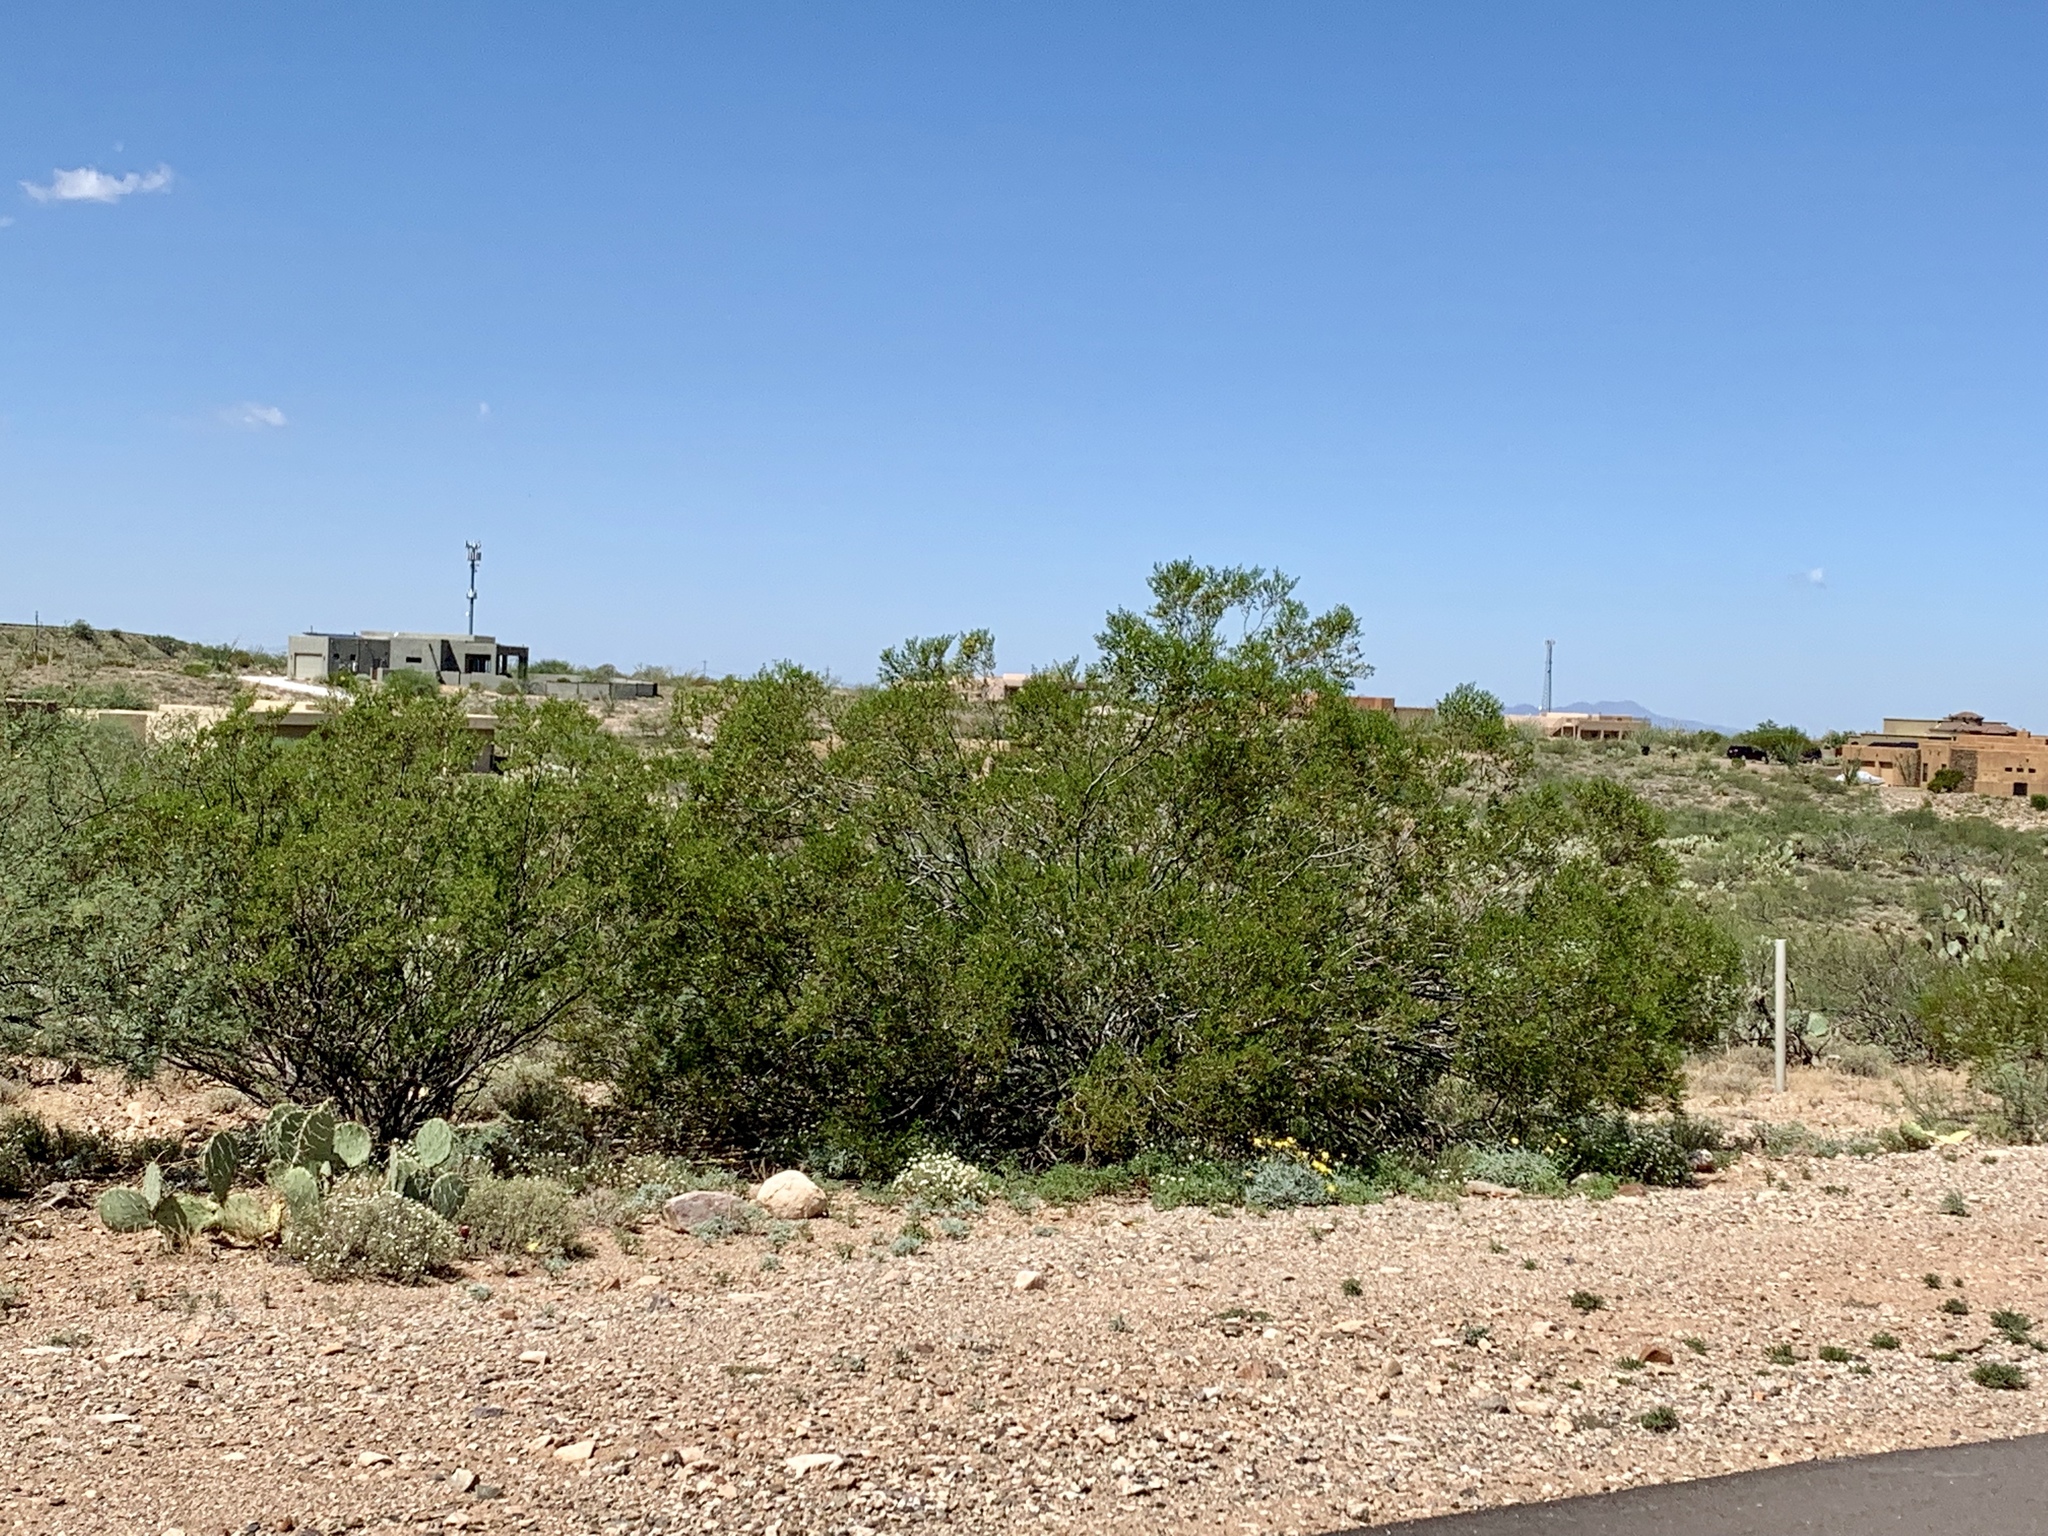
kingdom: Plantae
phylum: Tracheophyta
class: Magnoliopsida
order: Zygophyllales
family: Zygophyllaceae
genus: Larrea
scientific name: Larrea tridentata
